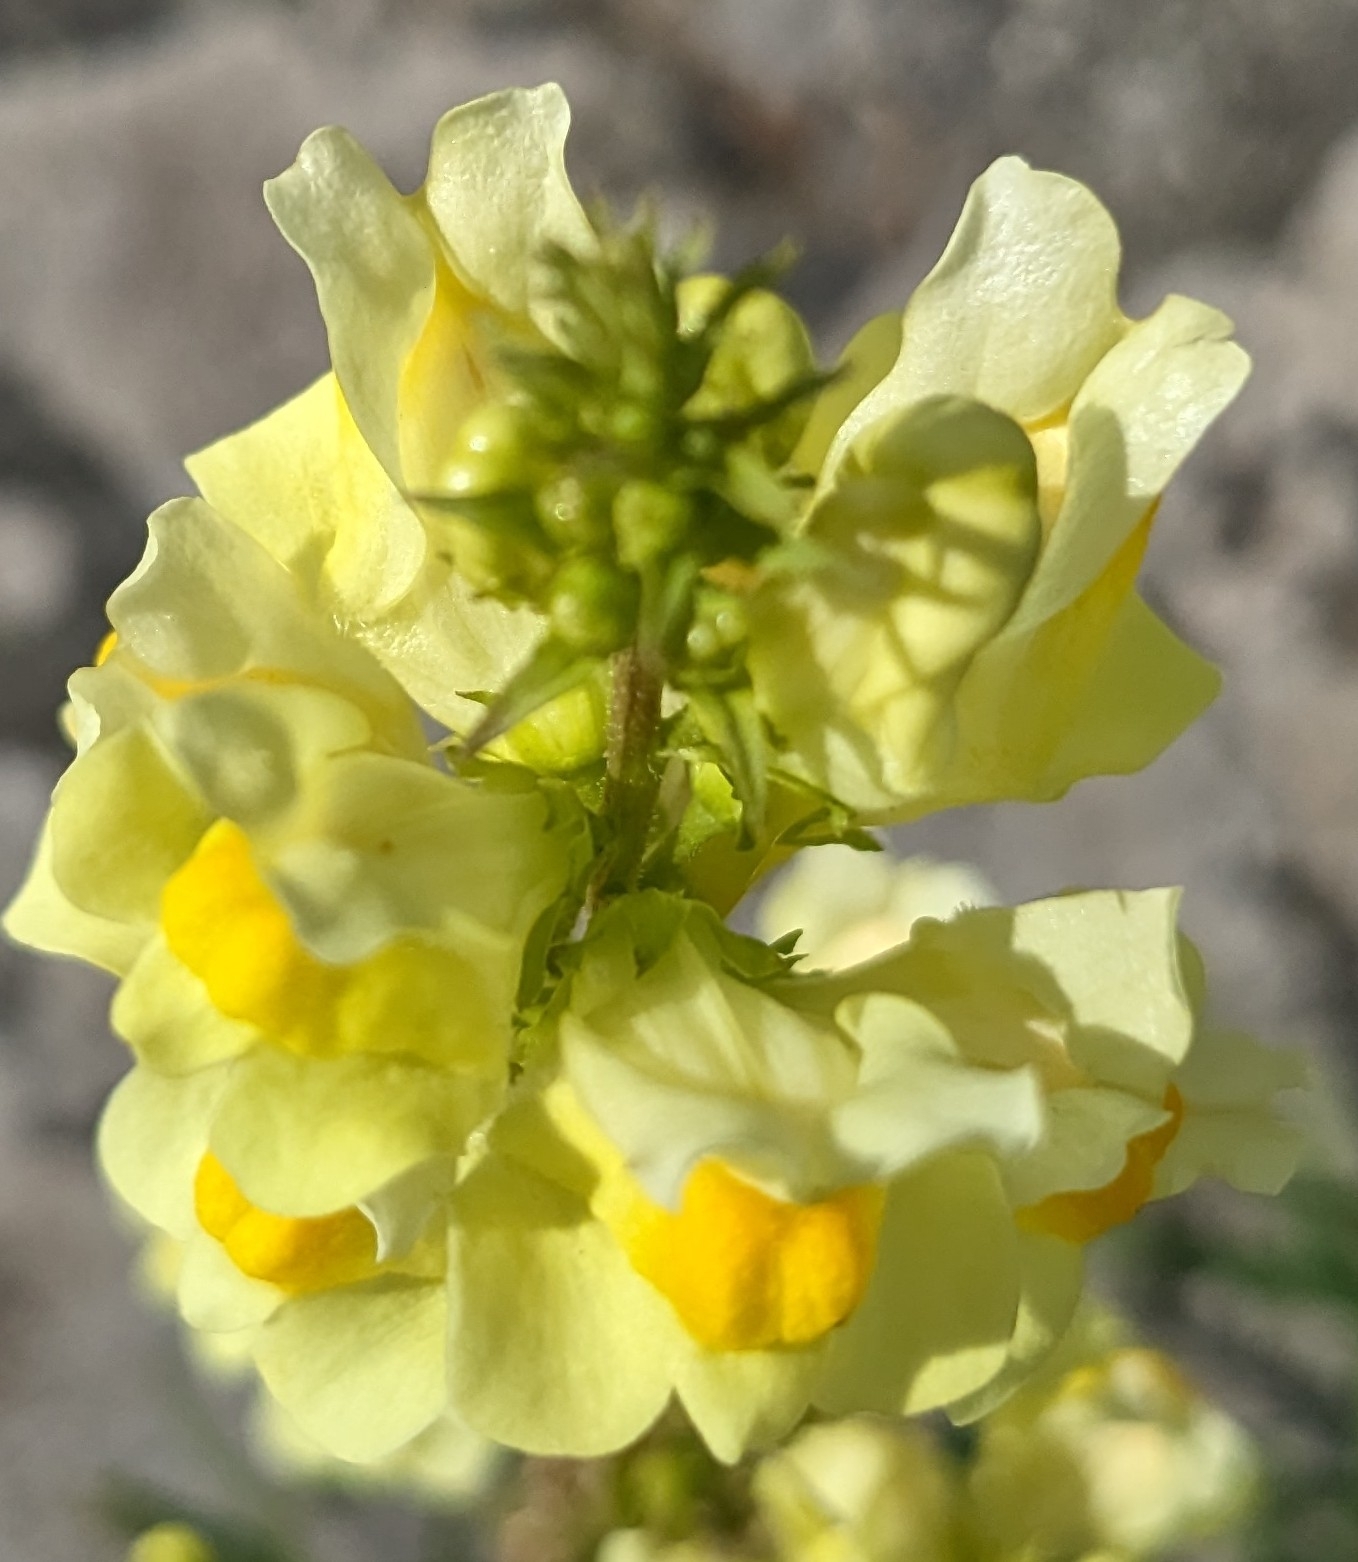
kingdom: Plantae
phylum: Tracheophyta
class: Magnoliopsida
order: Lamiales
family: Plantaginaceae
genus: Linaria
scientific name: Linaria vulgaris
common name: Butter and eggs
